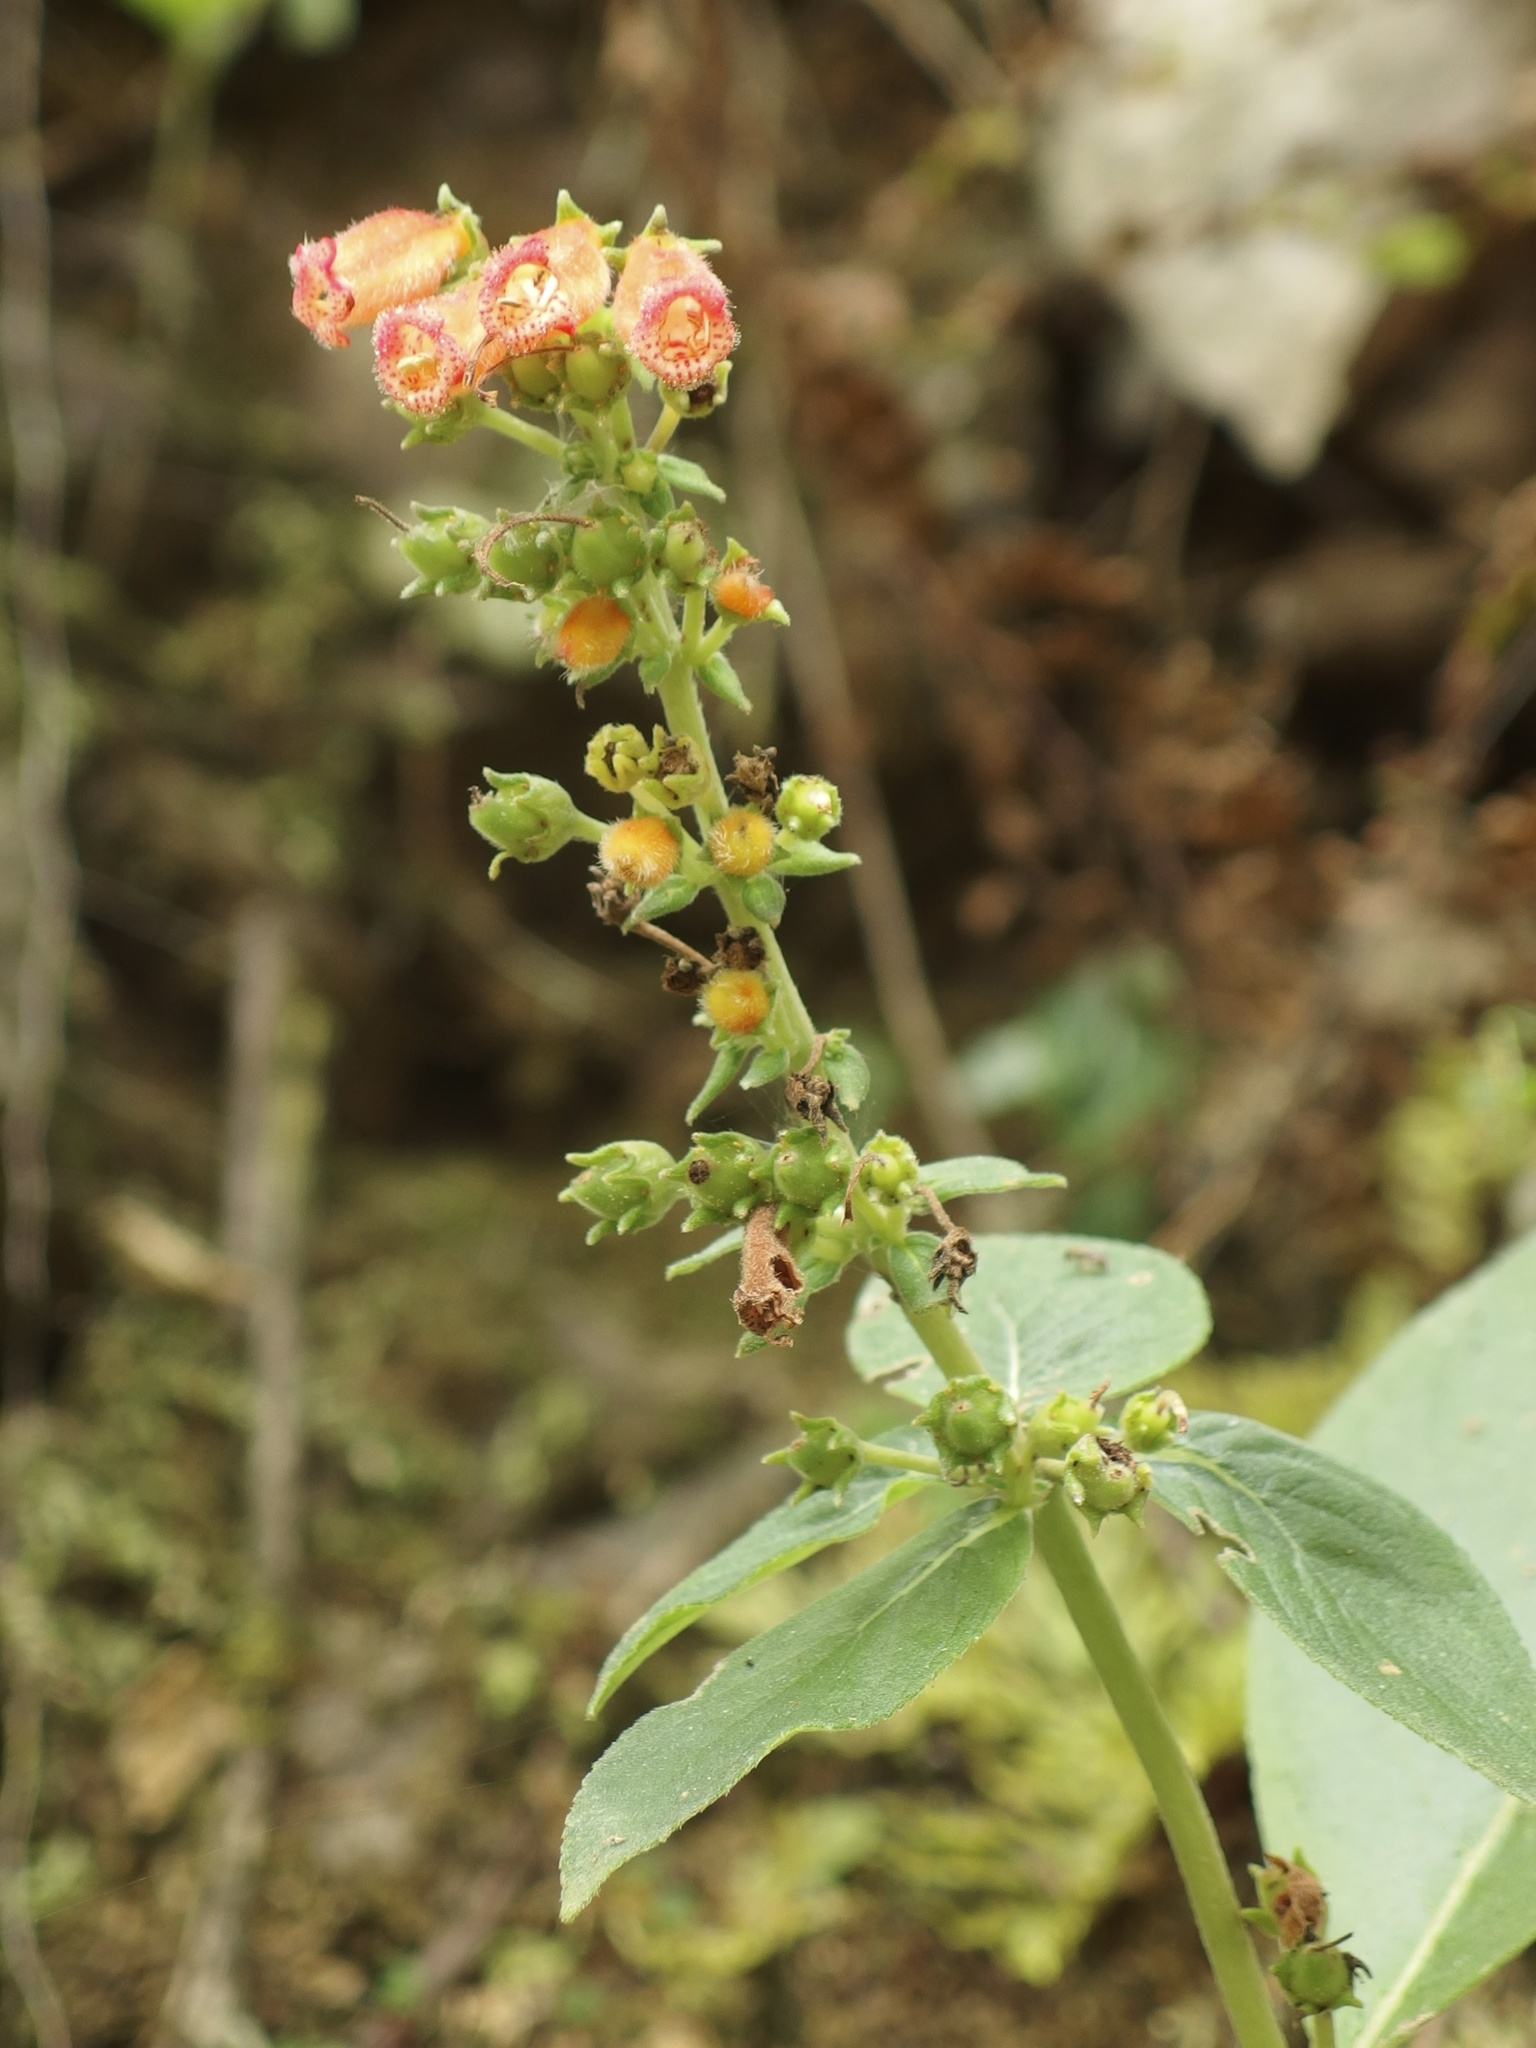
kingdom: Plantae
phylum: Tracheophyta
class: Magnoliopsida
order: Lamiales
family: Gesneriaceae
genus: Kohleria
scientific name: Kohleria spicata
